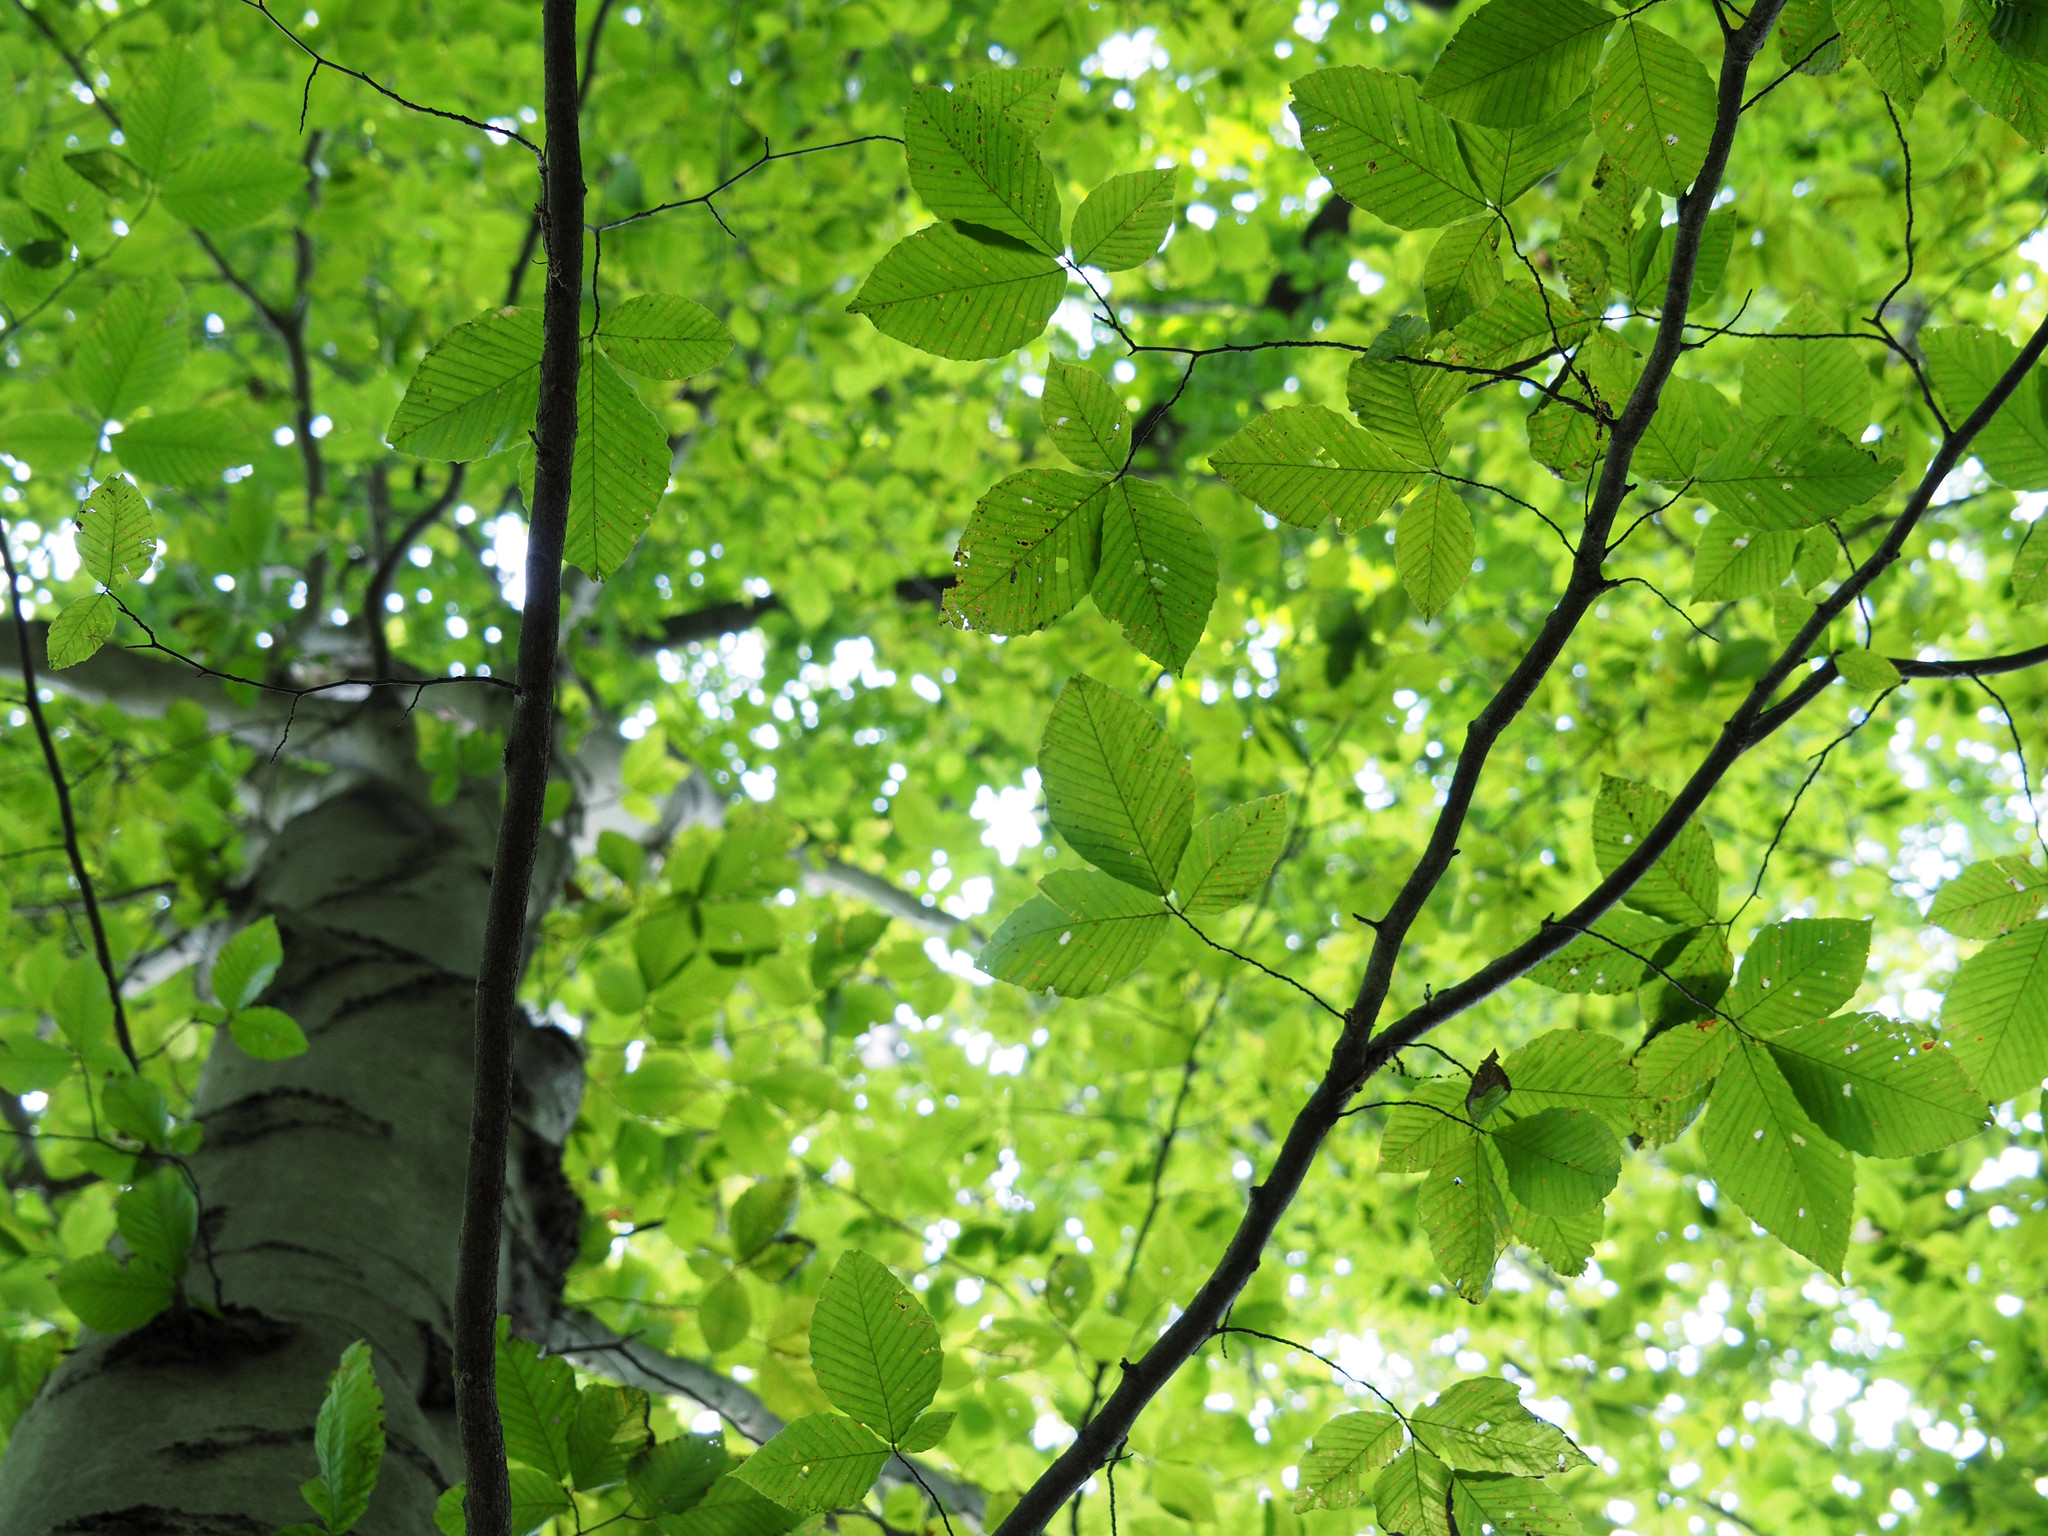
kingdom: Plantae
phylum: Tracheophyta
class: Magnoliopsida
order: Fagales
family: Fagaceae
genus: Fagus
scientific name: Fagus grandifolia
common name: American beech
